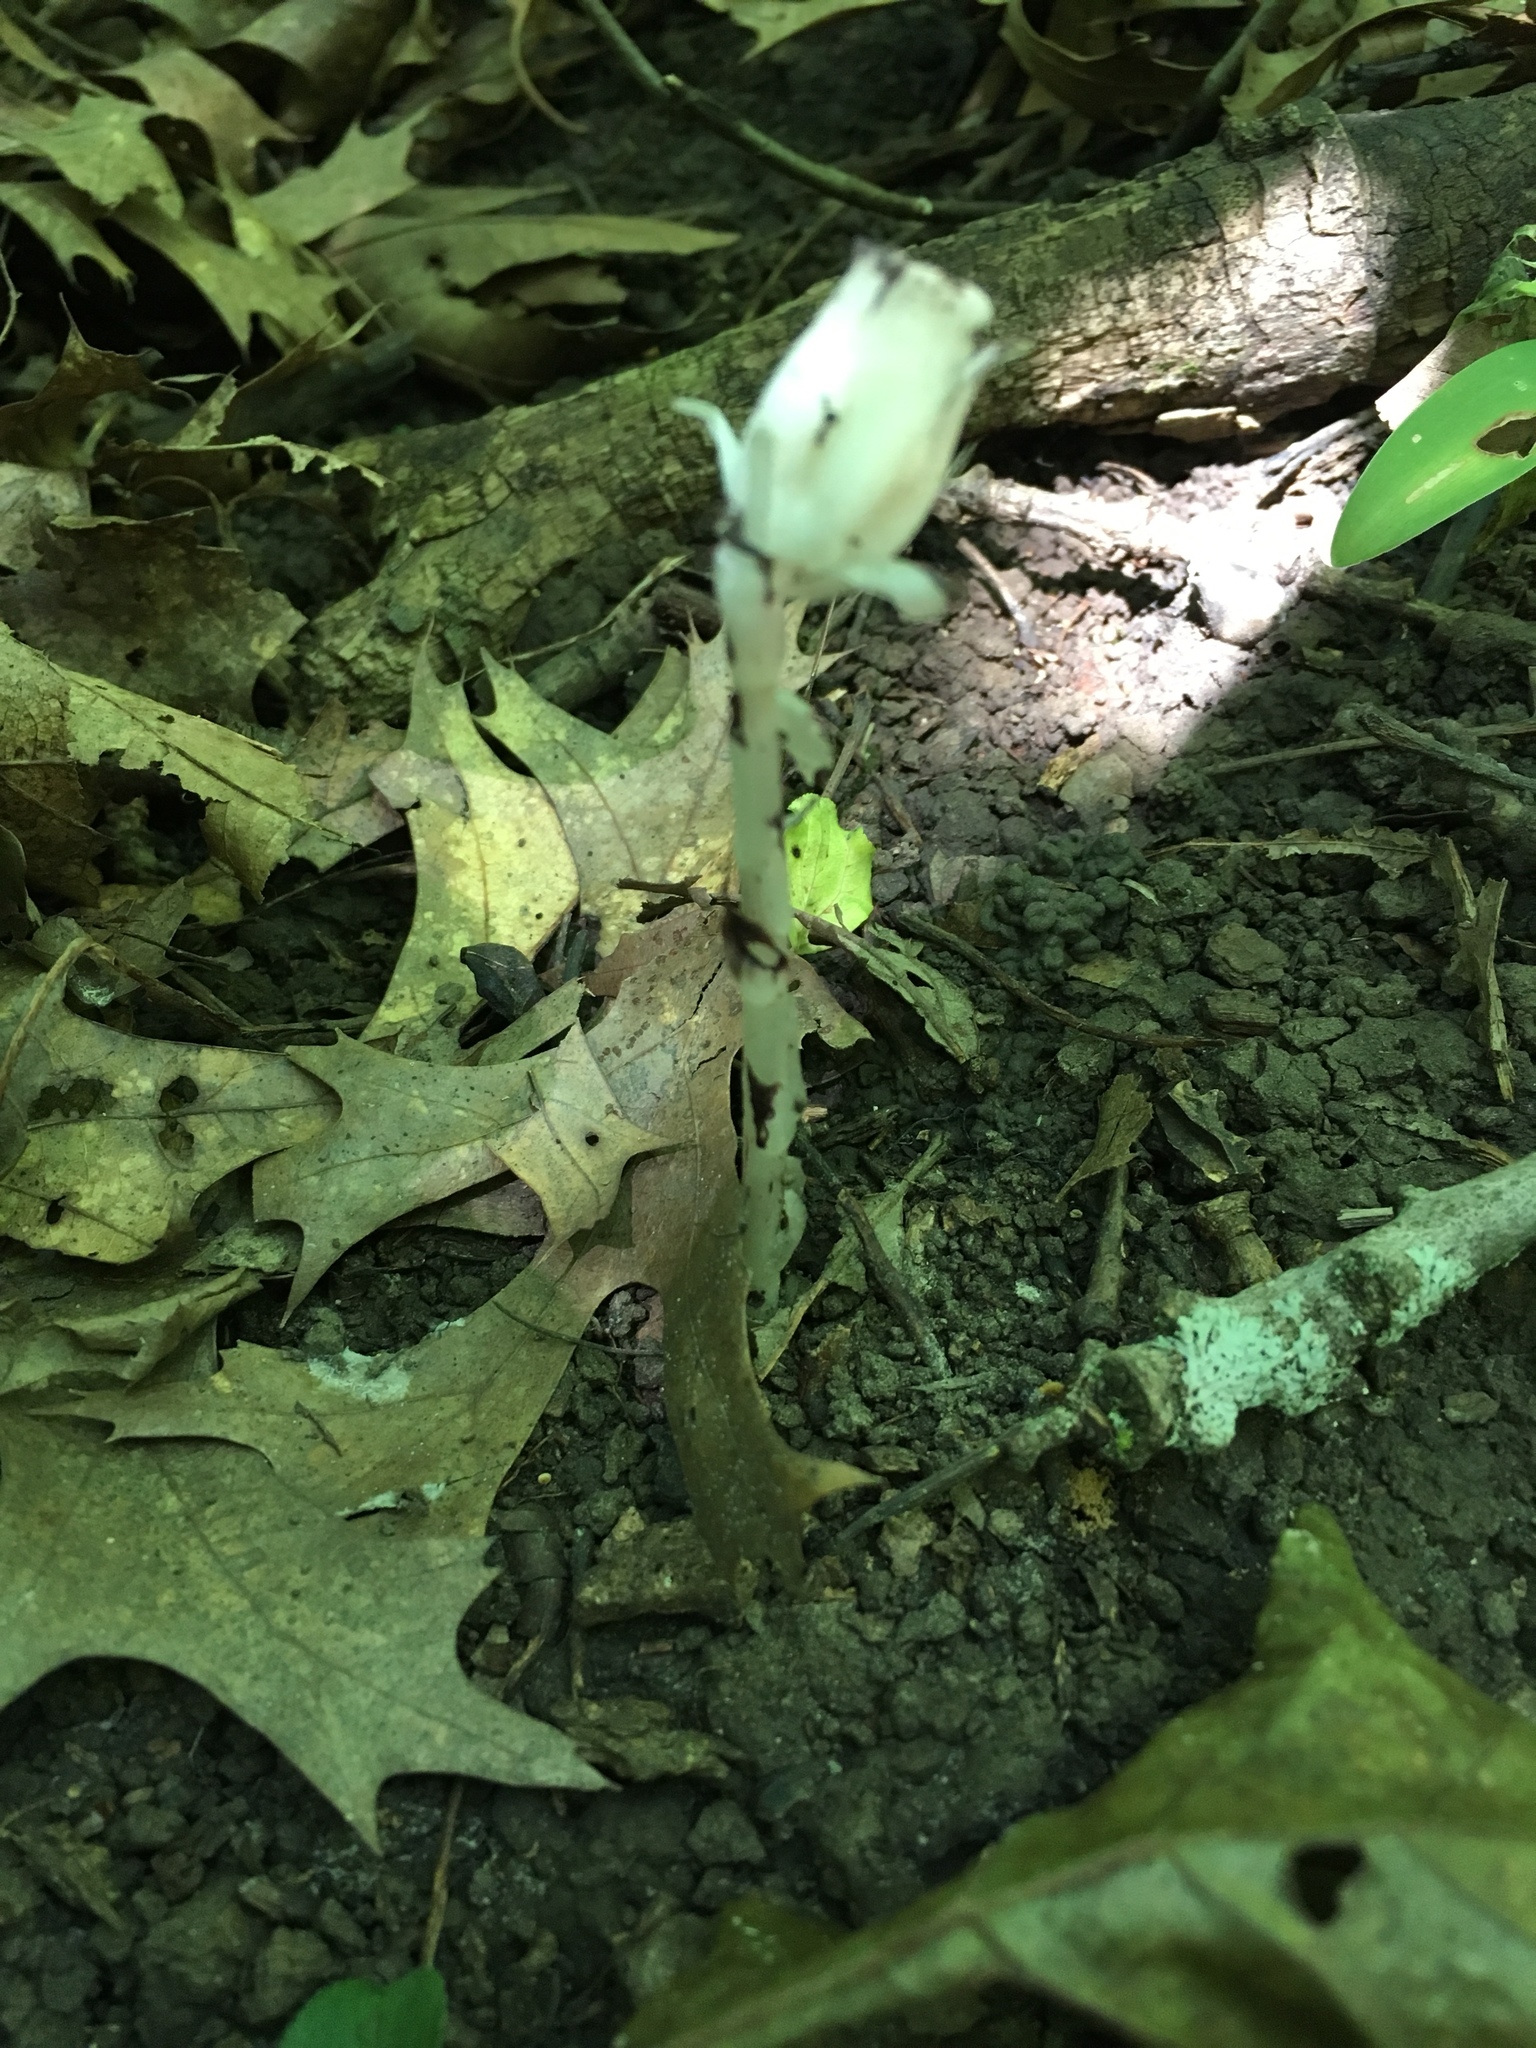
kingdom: Plantae
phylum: Tracheophyta
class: Magnoliopsida
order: Ericales
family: Ericaceae
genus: Monotropa
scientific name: Monotropa uniflora
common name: Convulsion root
